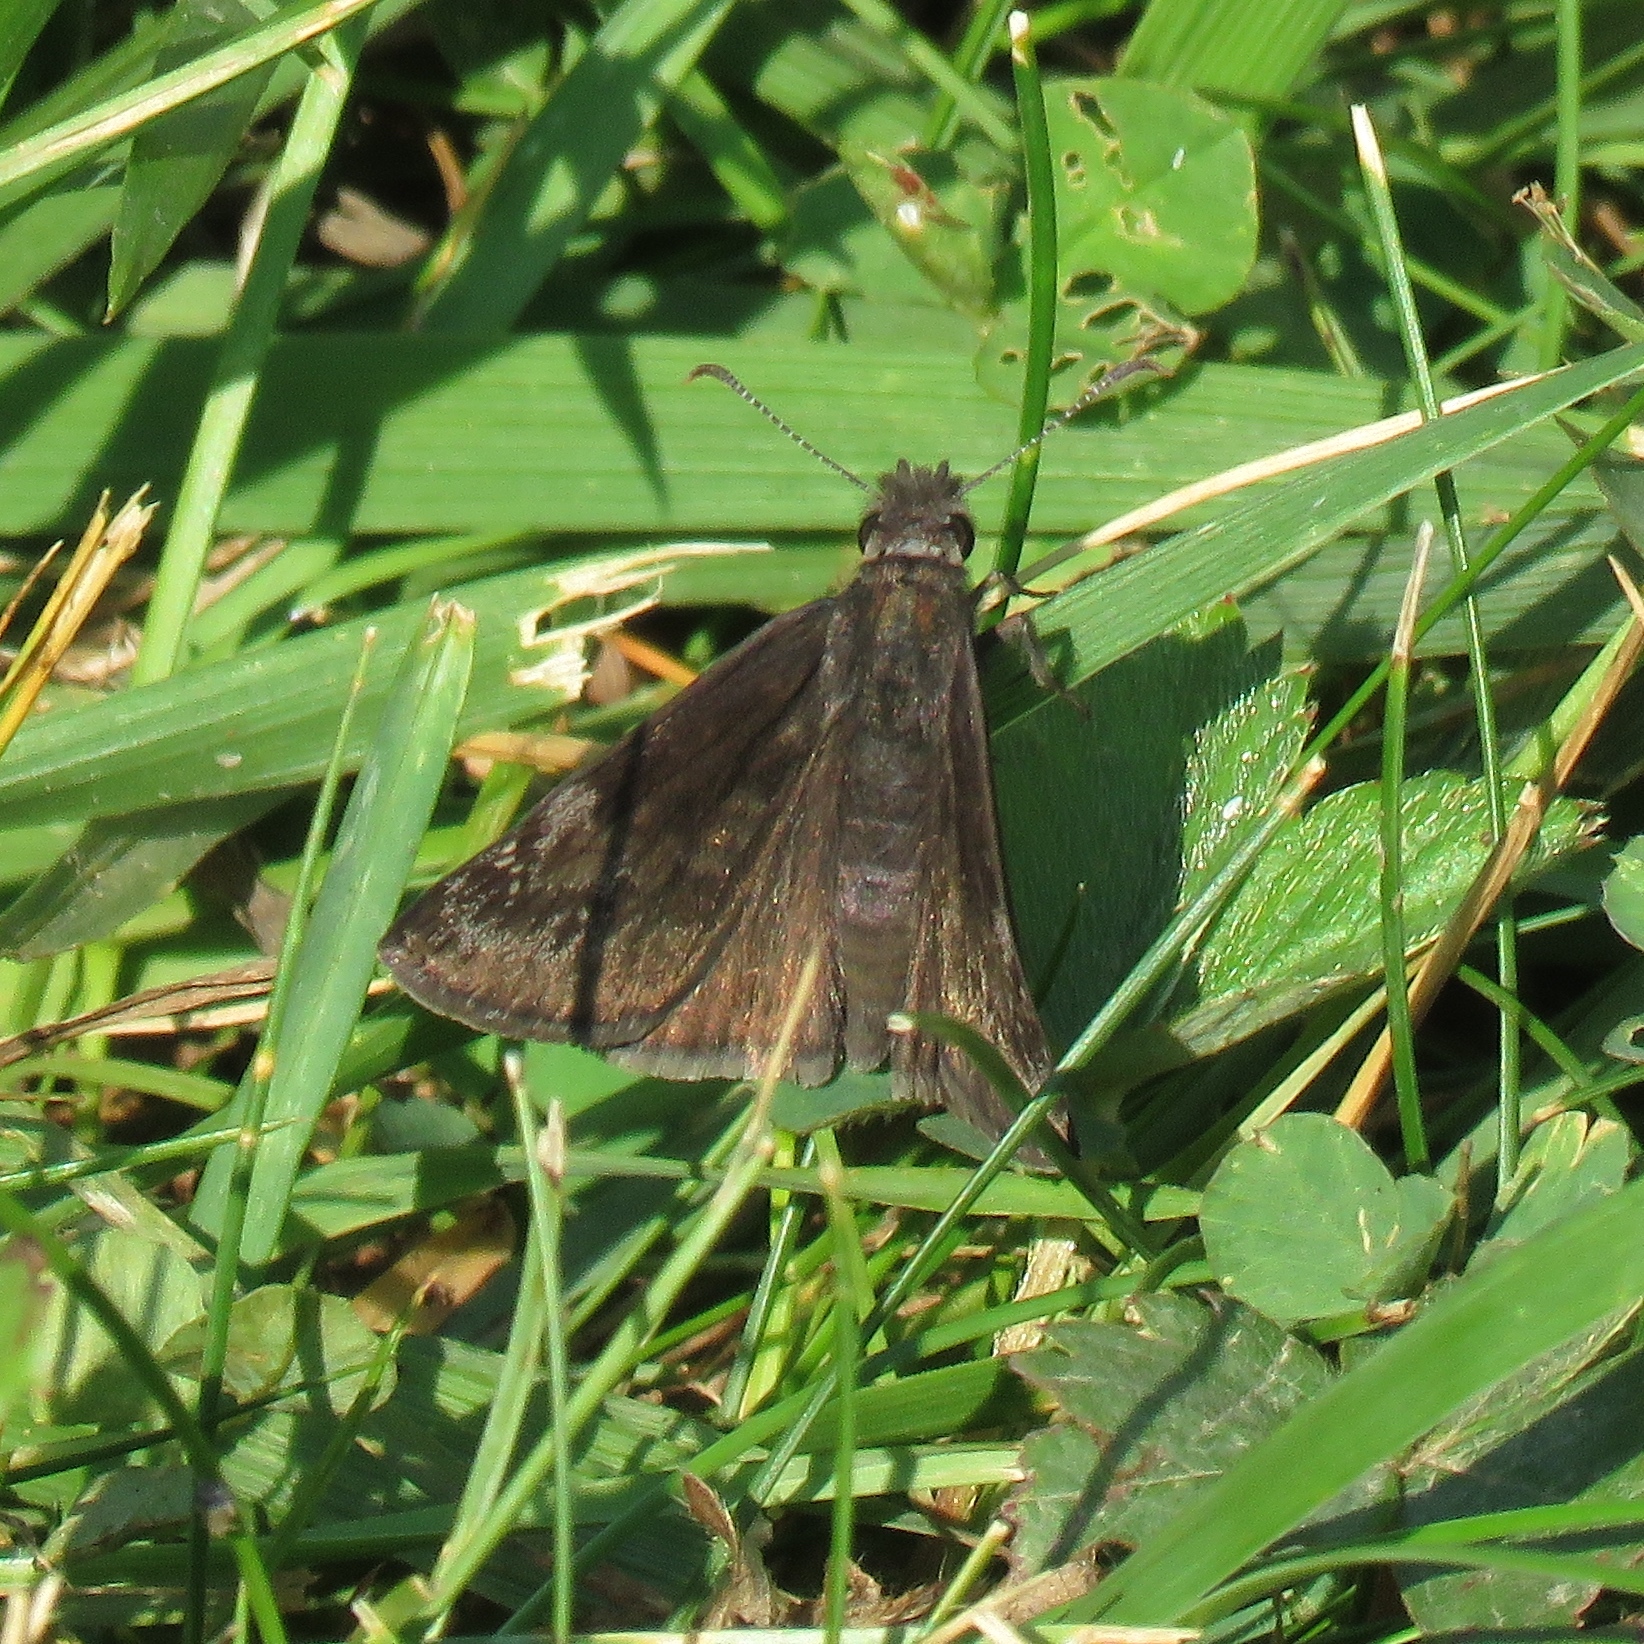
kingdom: Animalia
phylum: Arthropoda
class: Insecta
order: Lepidoptera
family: Hesperiidae
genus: Erynnis
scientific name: Erynnis baptisiae
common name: Wild indigo duskywing
